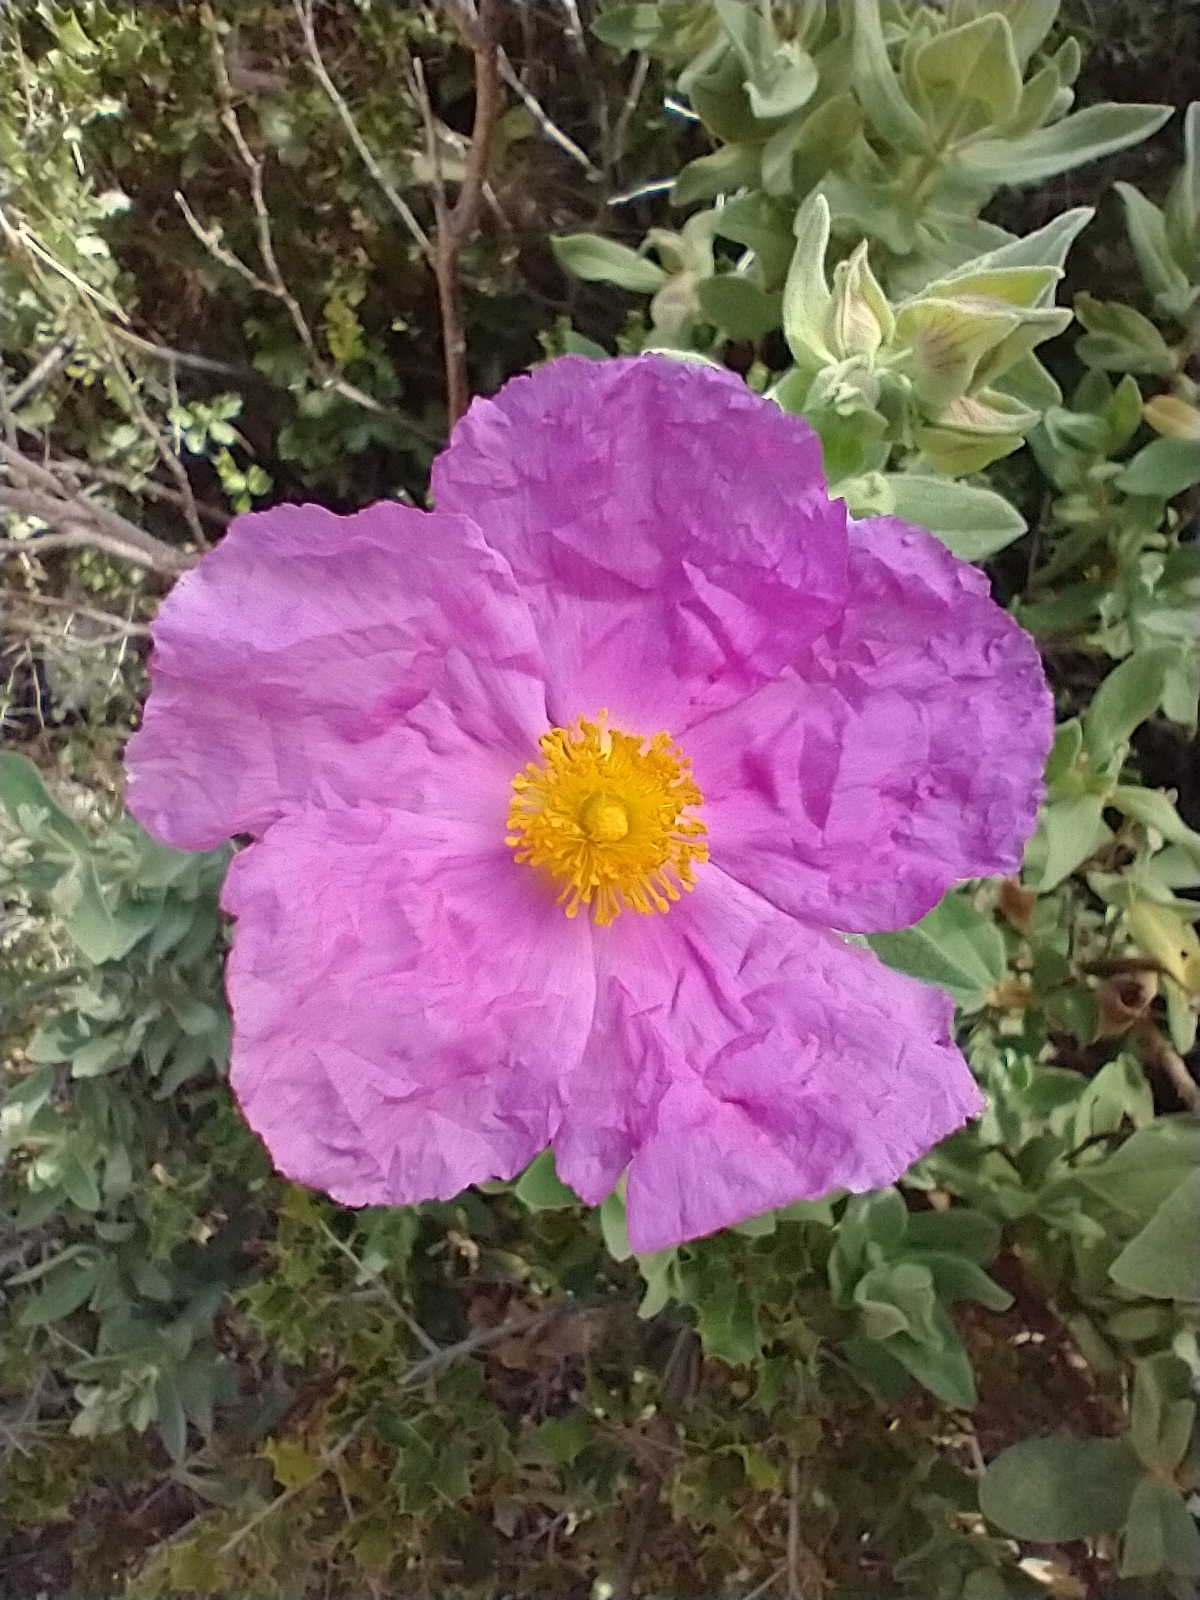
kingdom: Plantae
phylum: Tracheophyta
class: Magnoliopsida
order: Malvales
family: Cistaceae
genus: Cistus
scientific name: Cistus albidus
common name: White-leaf rock-rose
